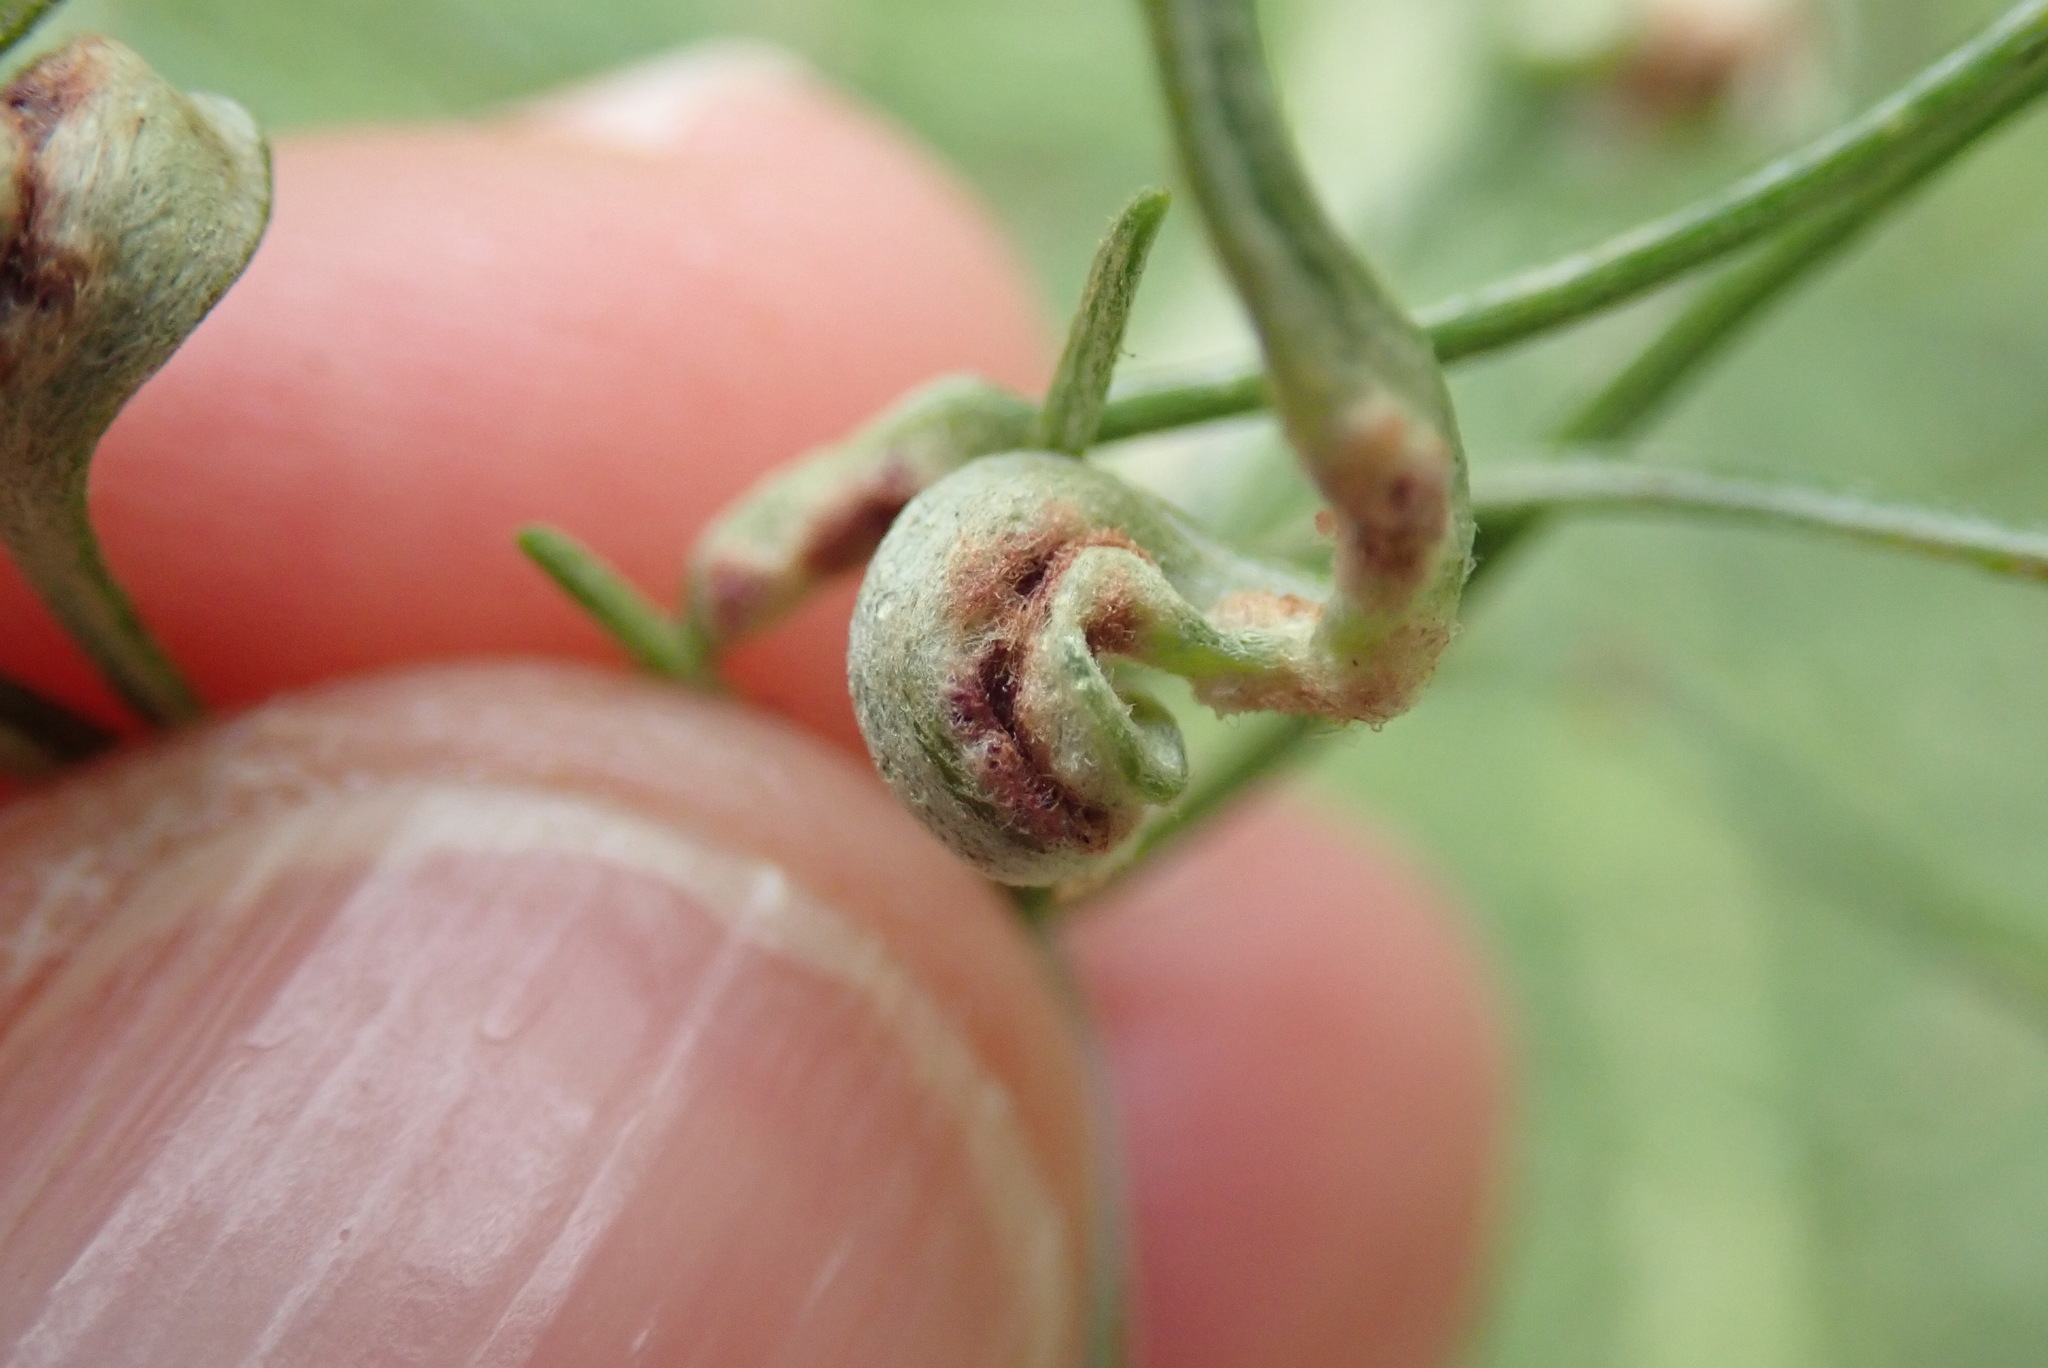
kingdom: Animalia
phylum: Arthropoda
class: Arachnida
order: Trombidiformes
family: Eriophyidae
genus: Aceria
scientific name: Aceria
